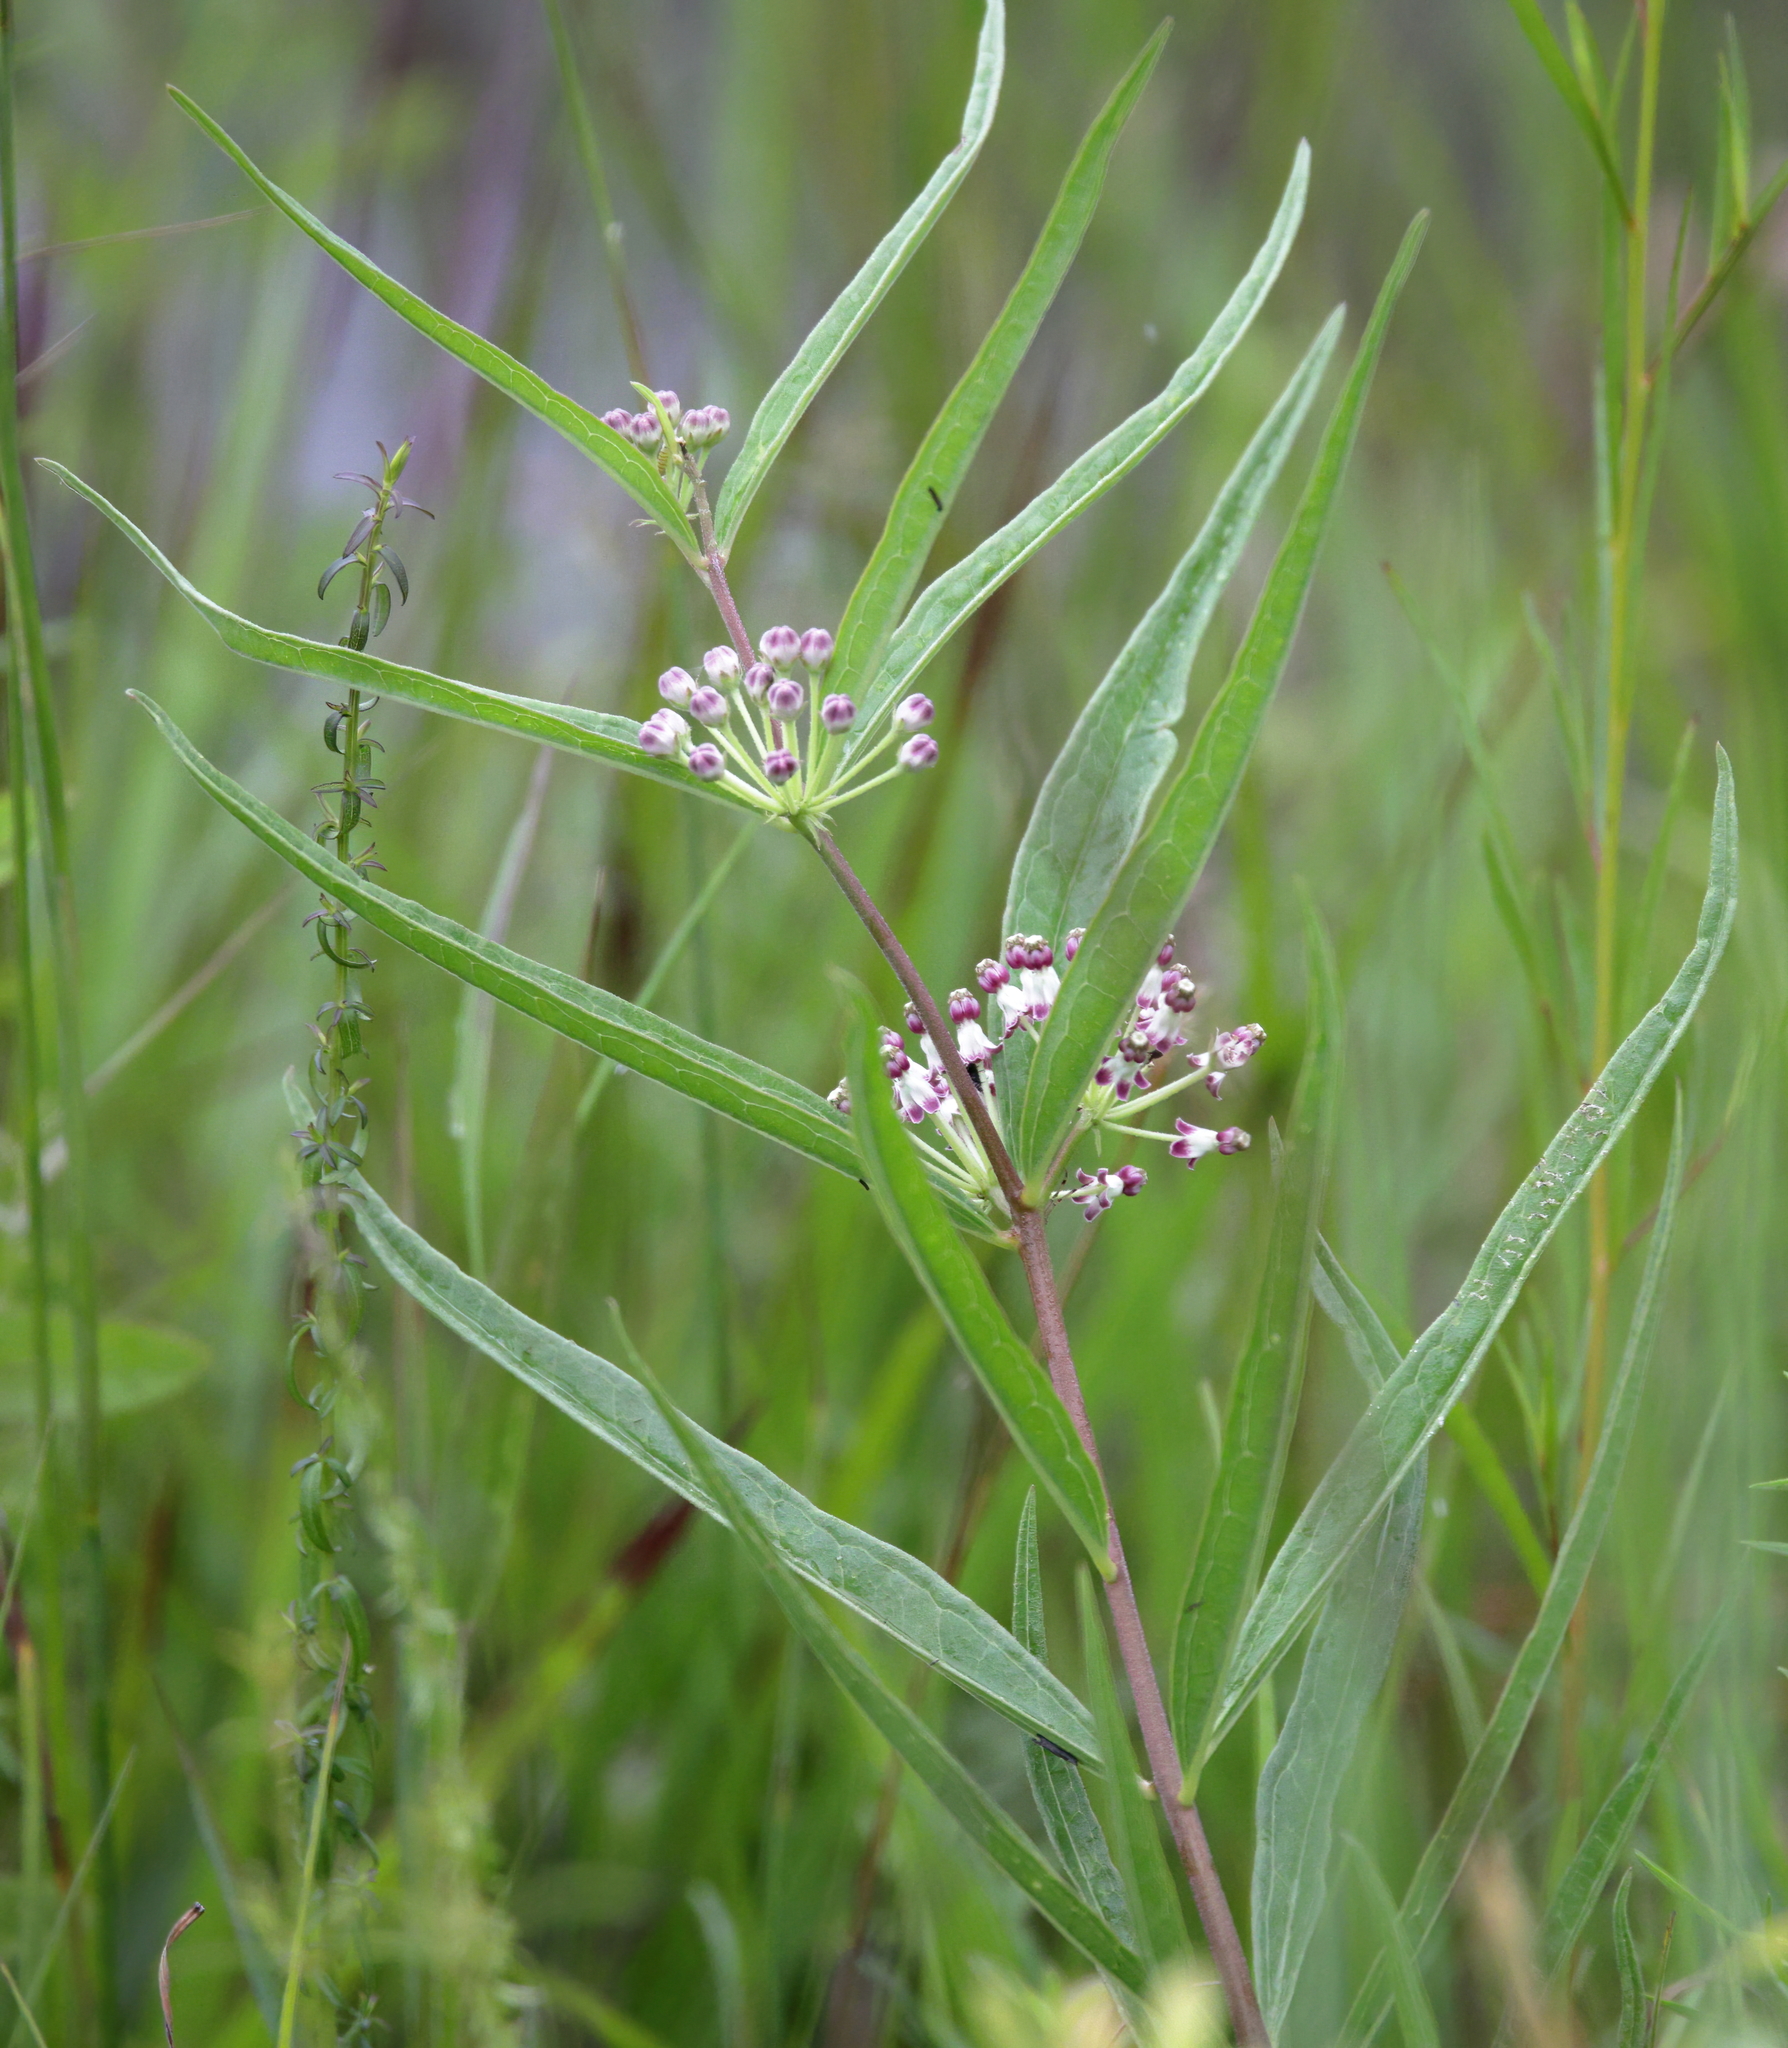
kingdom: Plantae
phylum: Tracheophyta
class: Magnoliopsida
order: Gentianales
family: Apocynaceae
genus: Asclepias
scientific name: Asclepias longifolia
